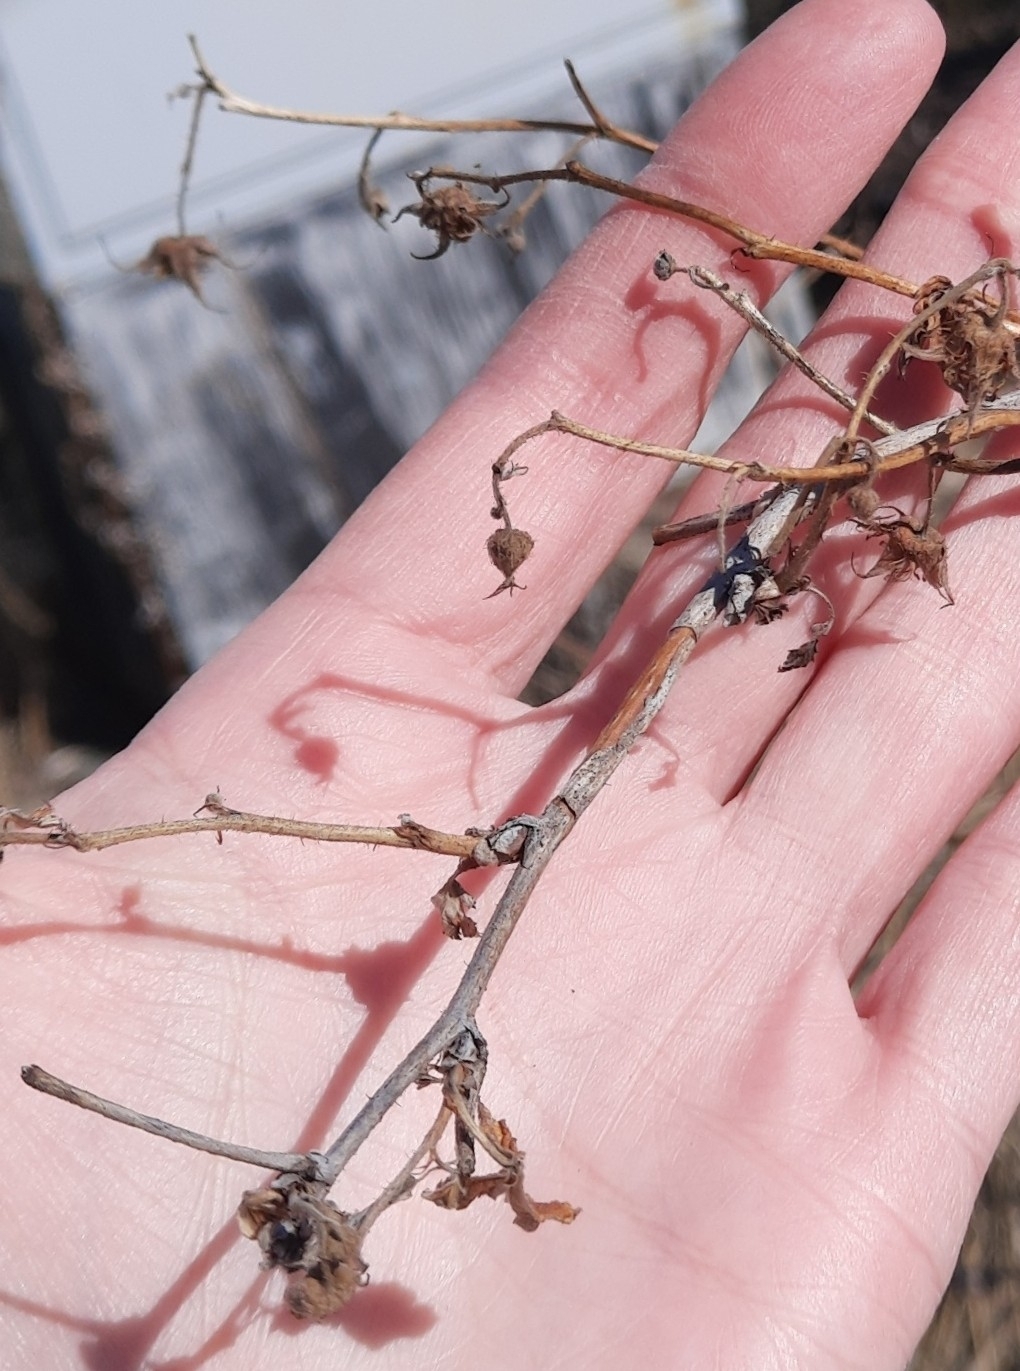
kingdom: Plantae
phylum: Tracheophyta
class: Magnoliopsida
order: Rosales
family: Rosaceae
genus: Rubus
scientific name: Rubus idaeus
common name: Raspberry
